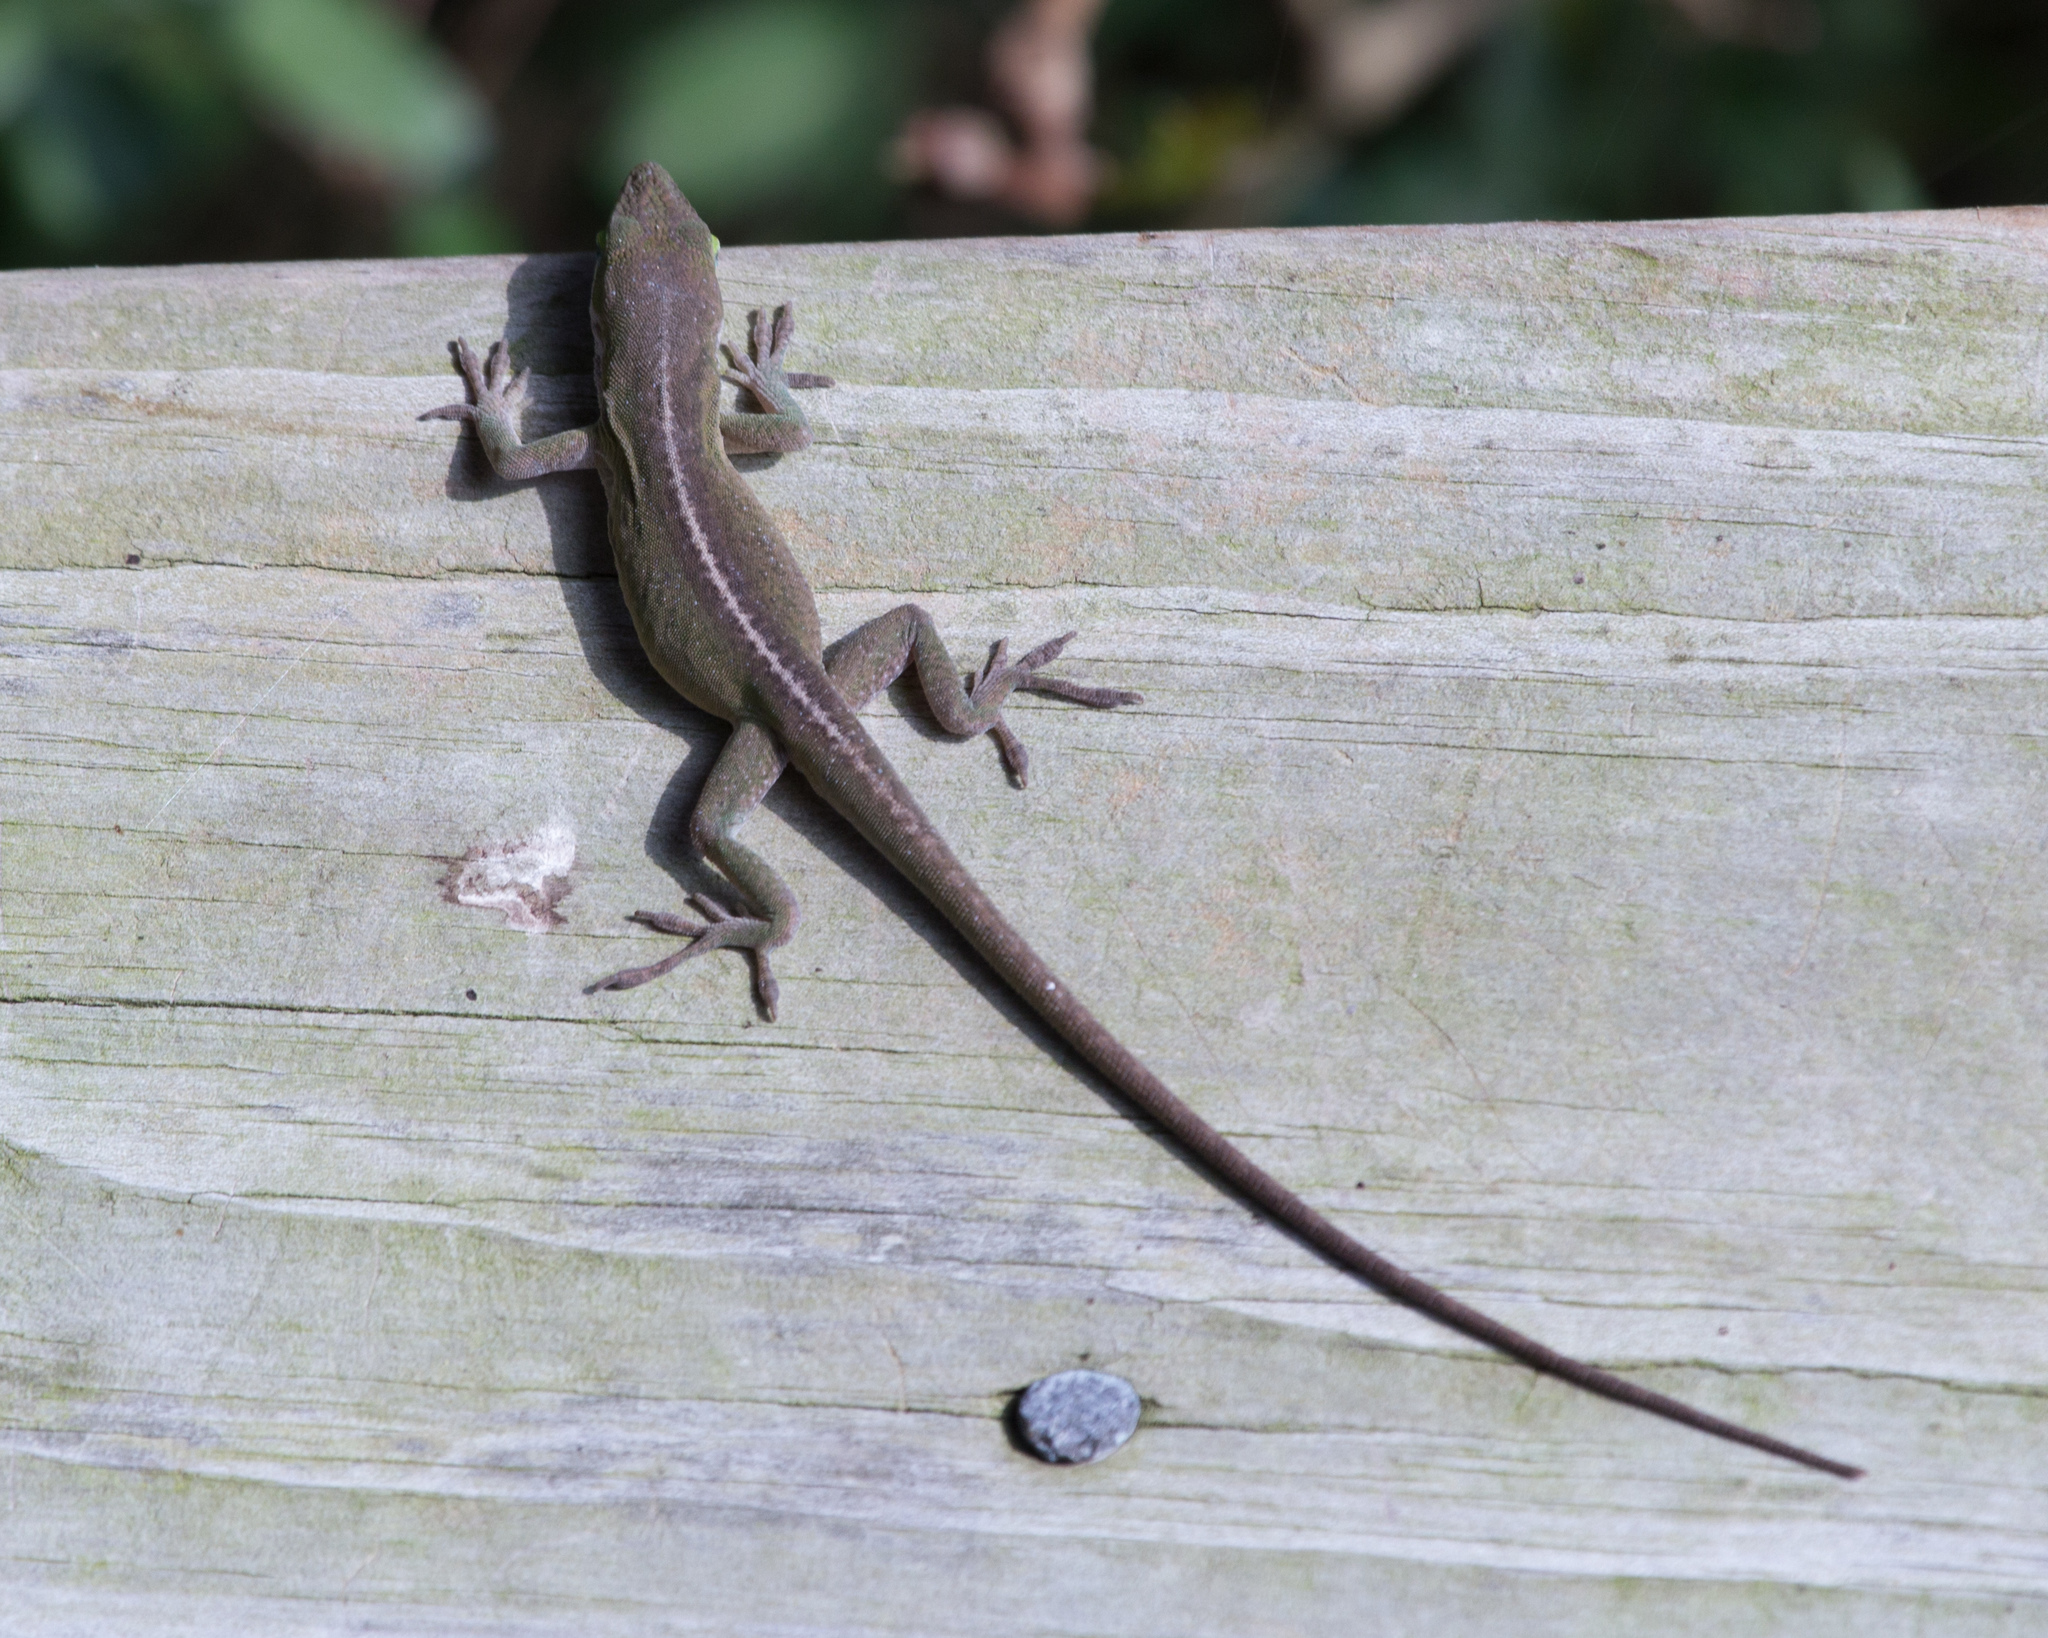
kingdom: Animalia
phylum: Chordata
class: Squamata
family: Dactyloidae
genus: Anolis
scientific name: Anolis carolinensis
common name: Green anole
